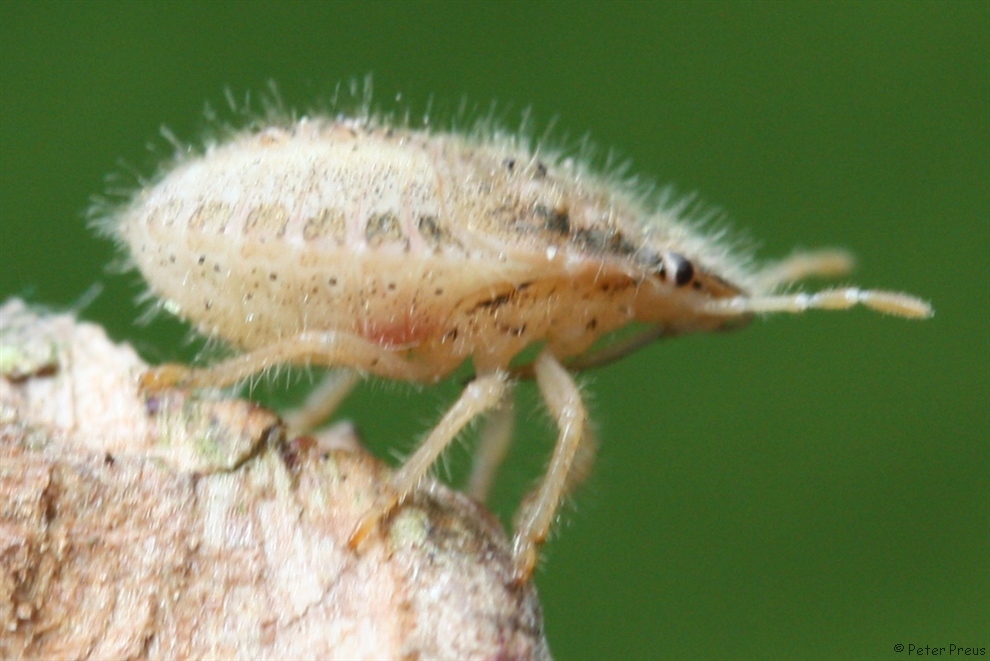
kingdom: Animalia
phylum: Arthropoda
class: Insecta
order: Hemiptera
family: Pentatomidae
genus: Dolycoris
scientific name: Dolycoris baccarum
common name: Sloe bug
